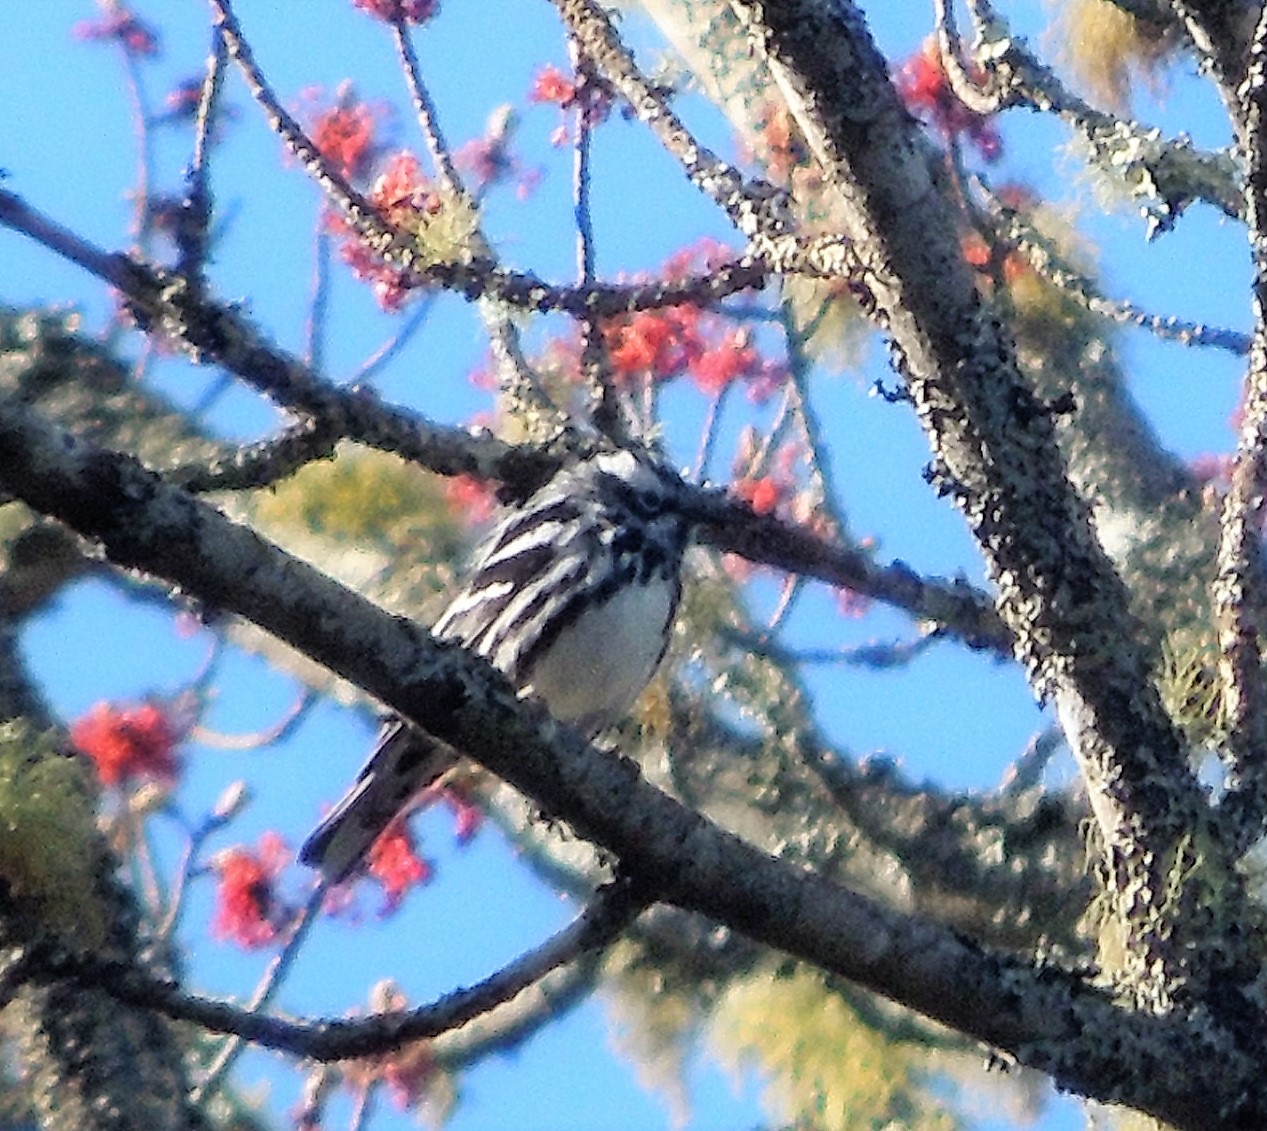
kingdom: Animalia
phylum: Chordata
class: Aves
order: Passeriformes
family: Parulidae
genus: Mniotilta
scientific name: Mniotilta varia
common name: Black-and-white warbler
